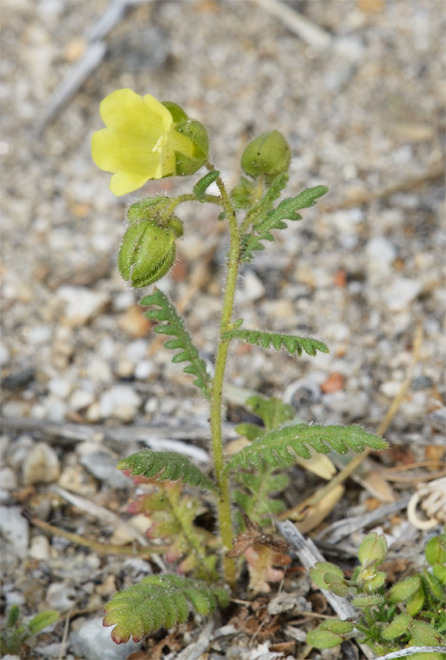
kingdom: Plantae
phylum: Tracheophyta
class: Magnoliopsida
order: Boraginales
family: Hydrophyllaceae
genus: Emmenanthe
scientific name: Emmenanthe penduliflora
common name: Whispering-bells
